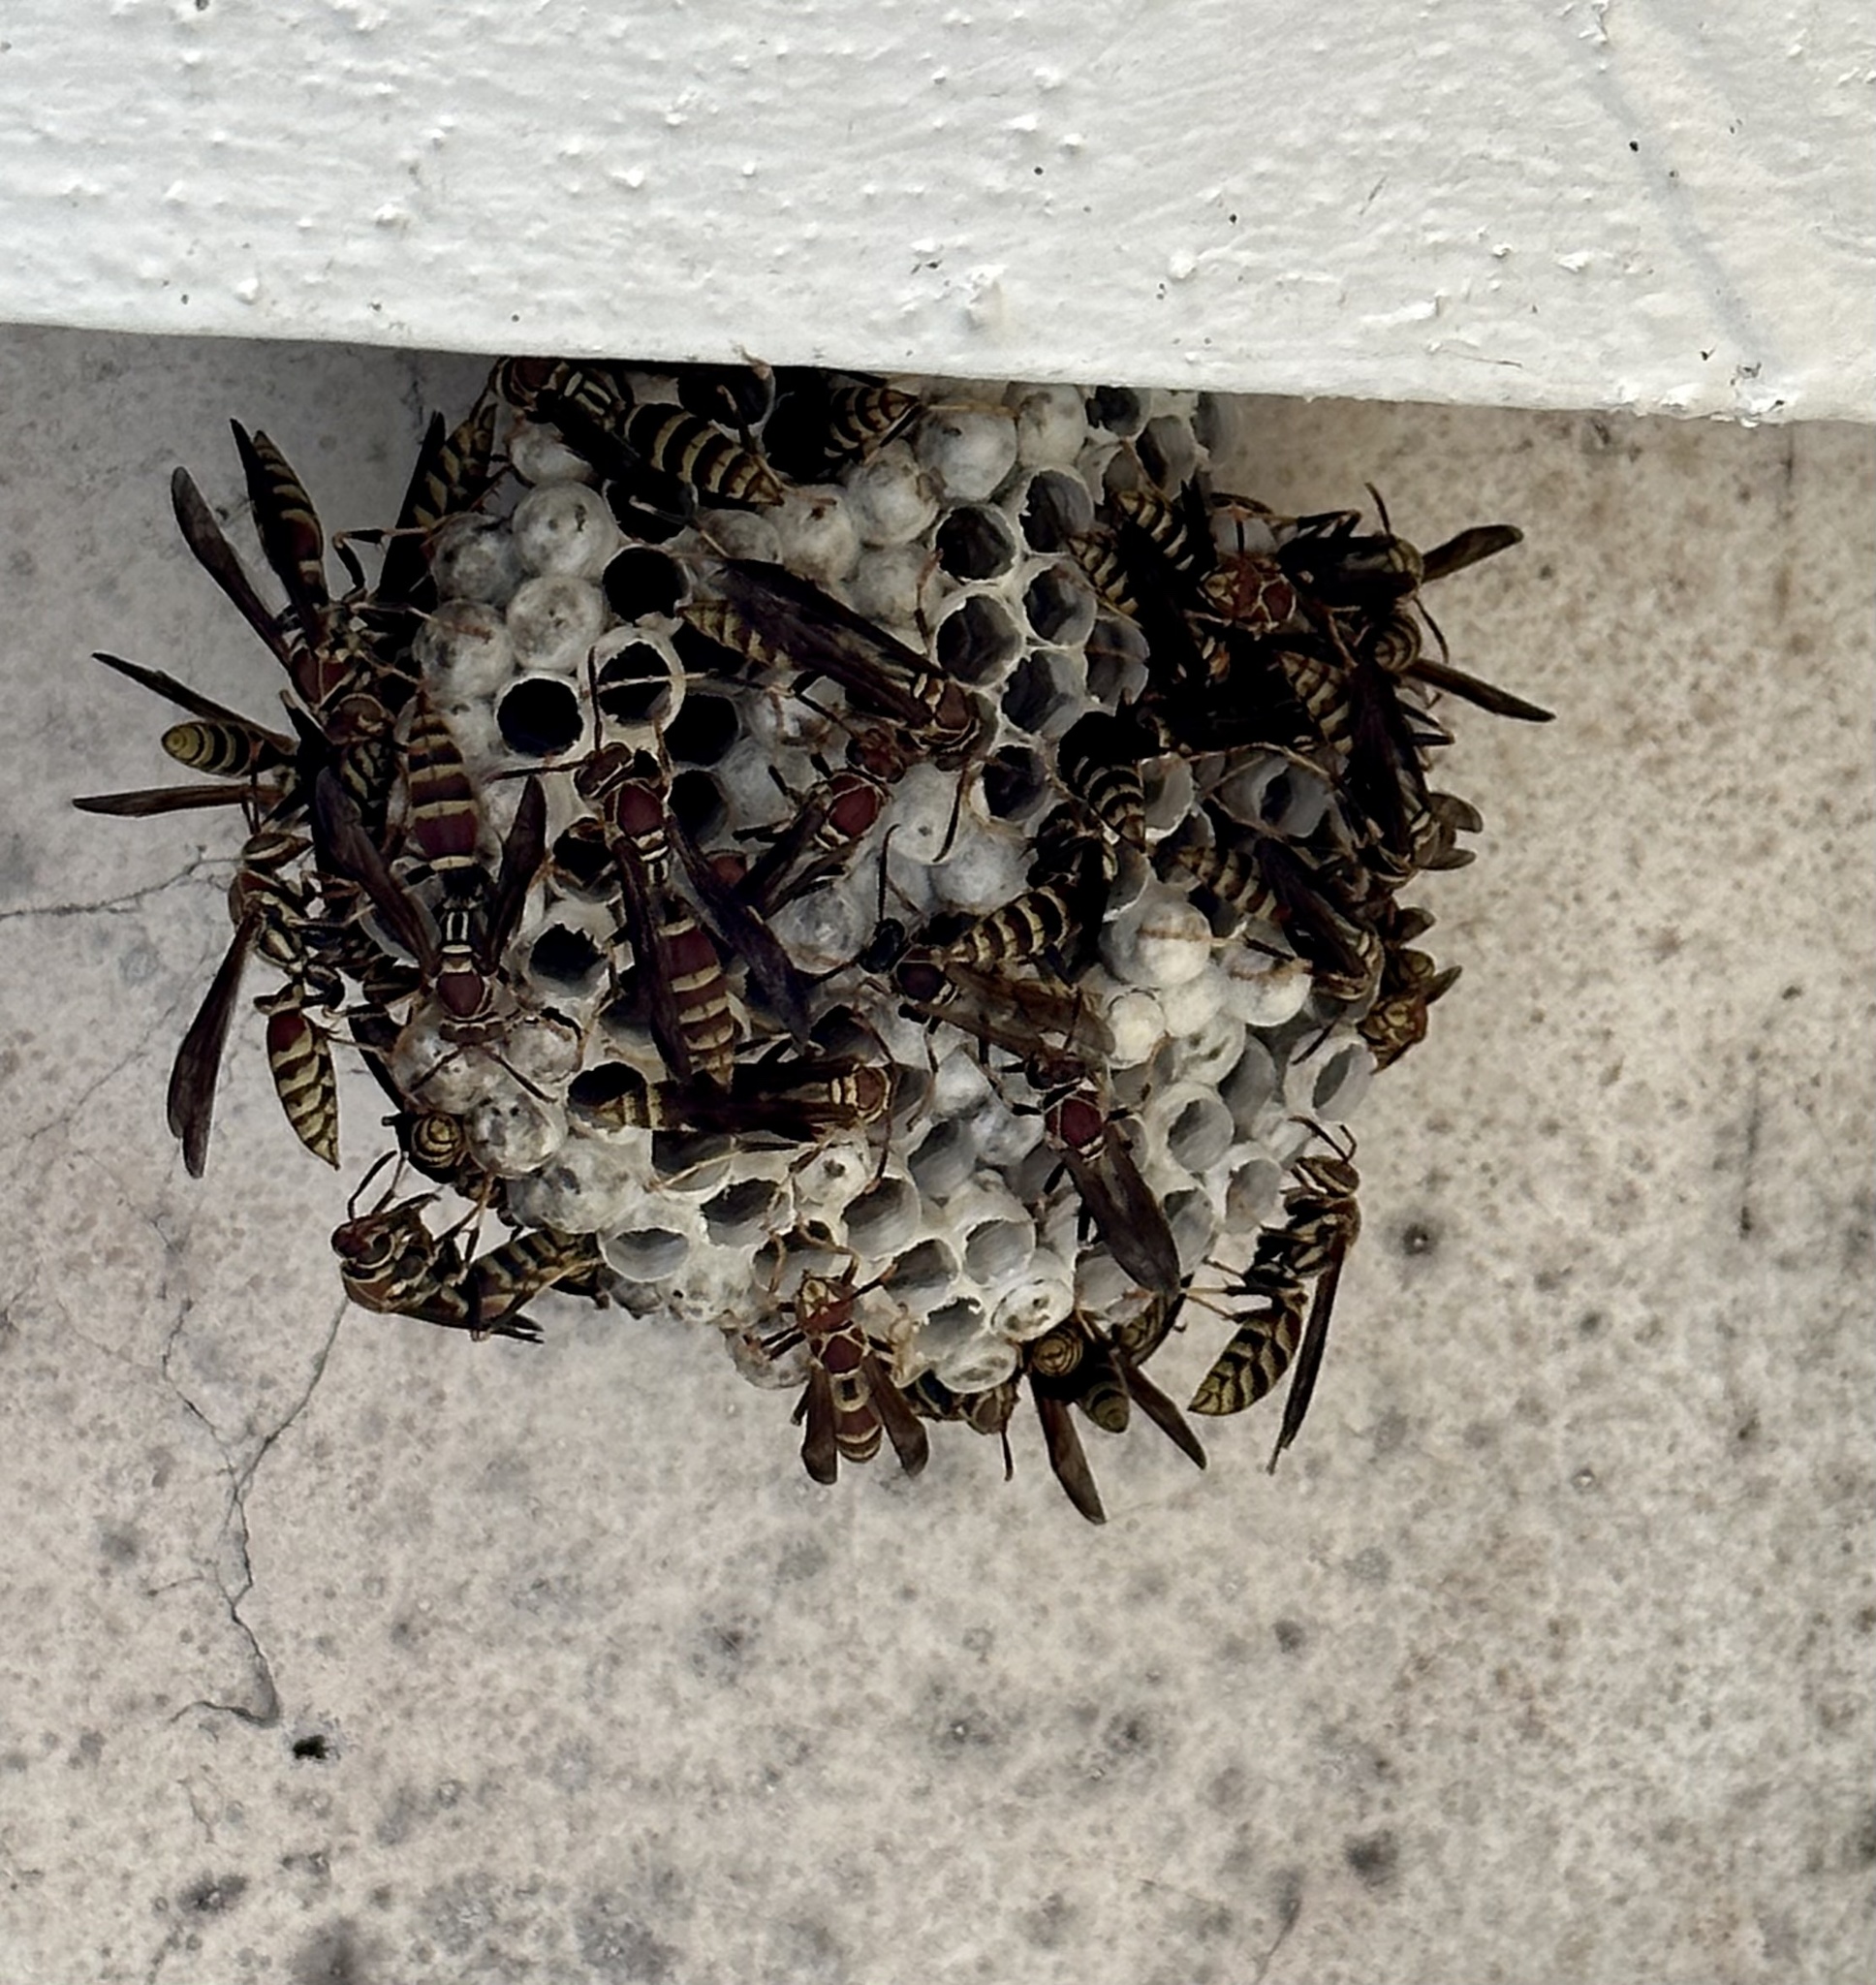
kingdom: Animalia
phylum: Arthropoda
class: Insecta
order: Hymenoptera
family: Eumenidae
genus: Polistes
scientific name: Polistes exclamans
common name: Paper wasp
